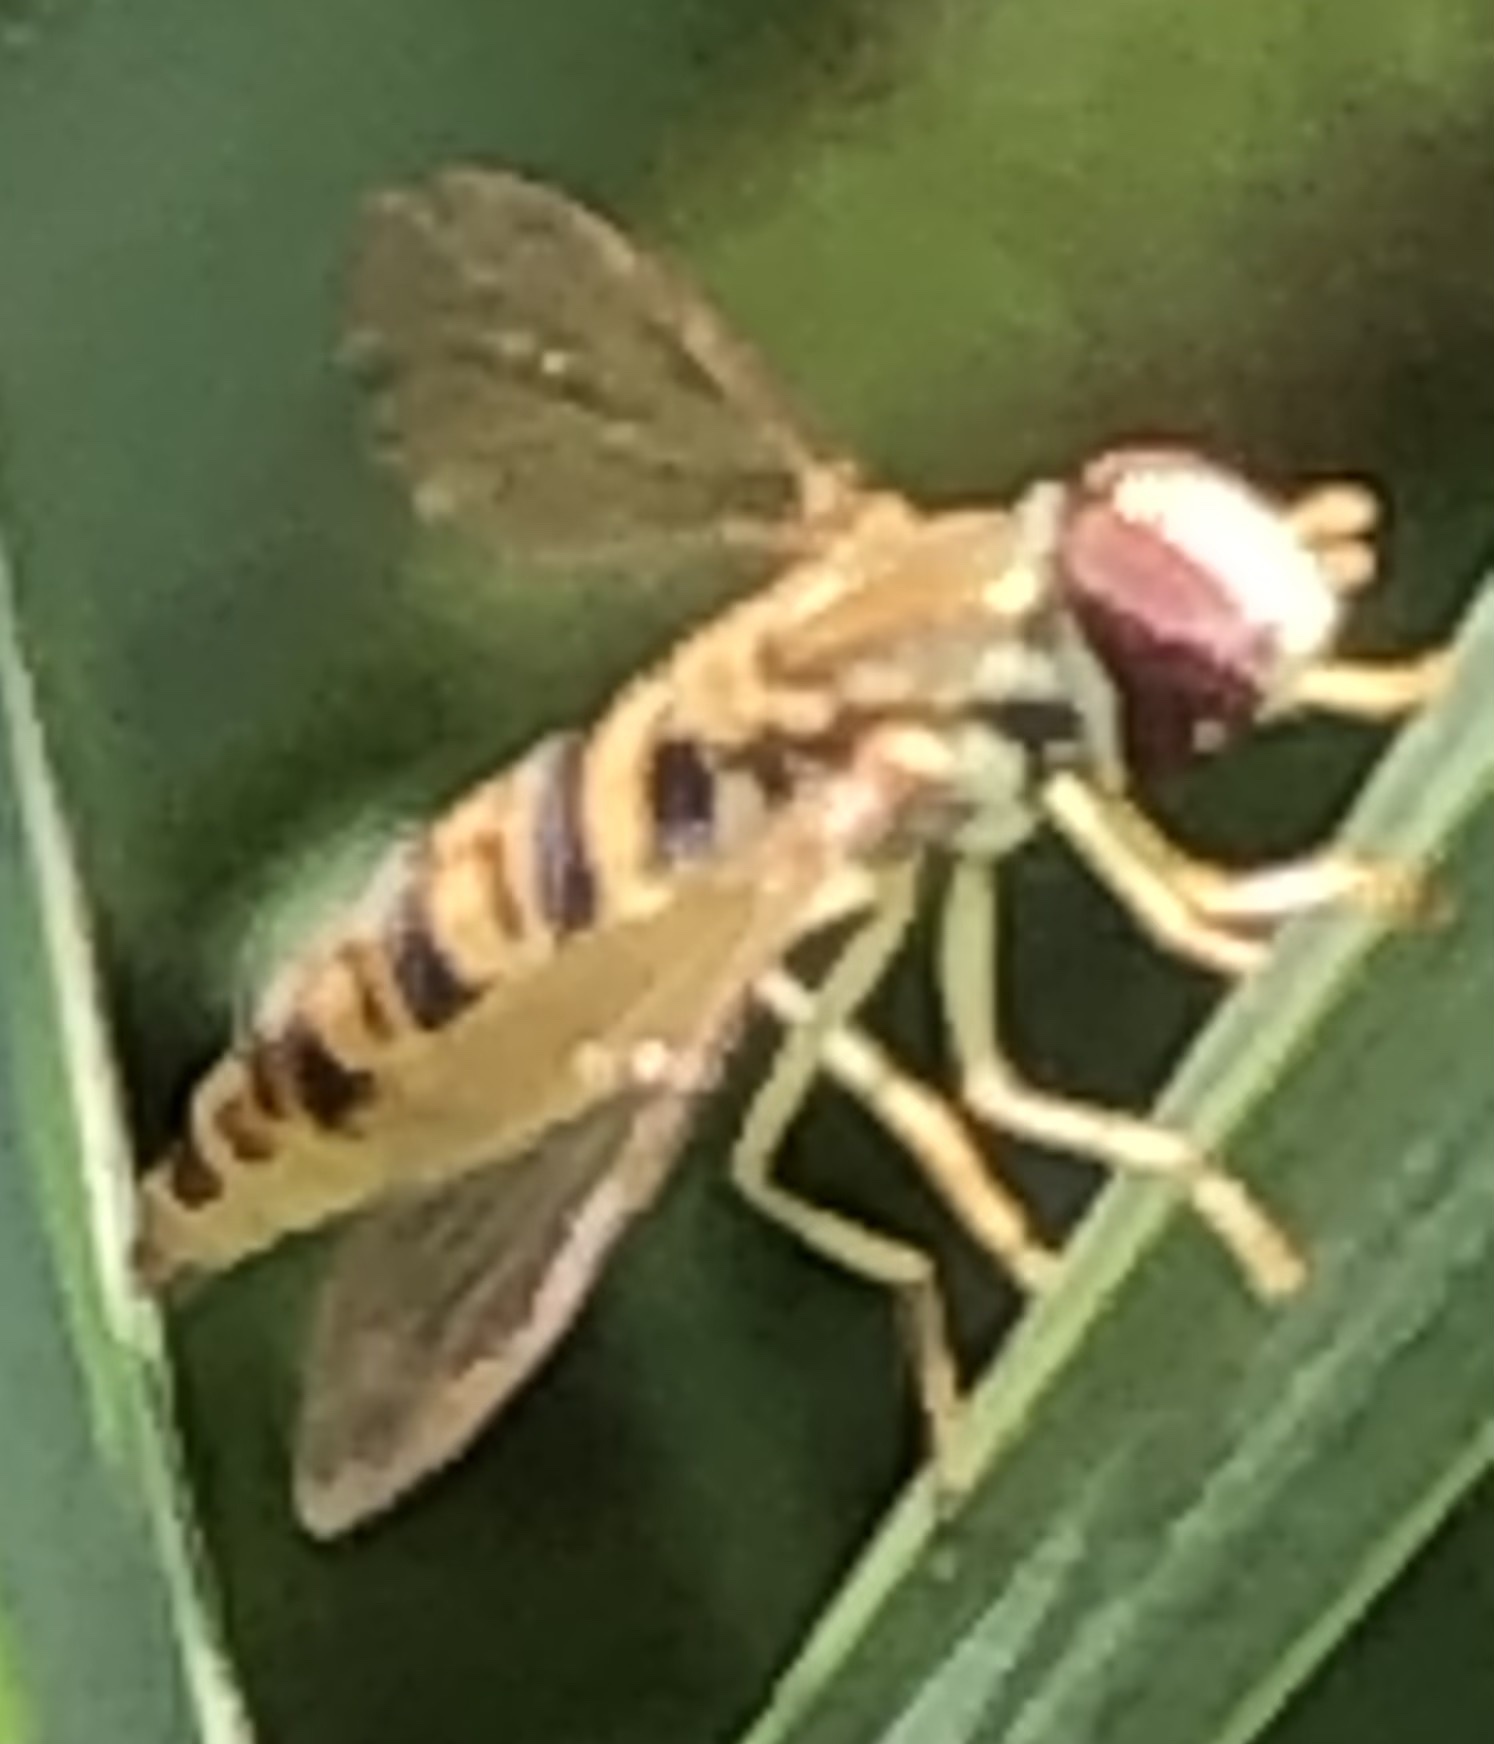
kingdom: Animalia
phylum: Arthropoda
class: Insecta
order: Diptera
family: Syrphidae
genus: Toxomerus
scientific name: Toxomerus politus
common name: Maize calligrapher
